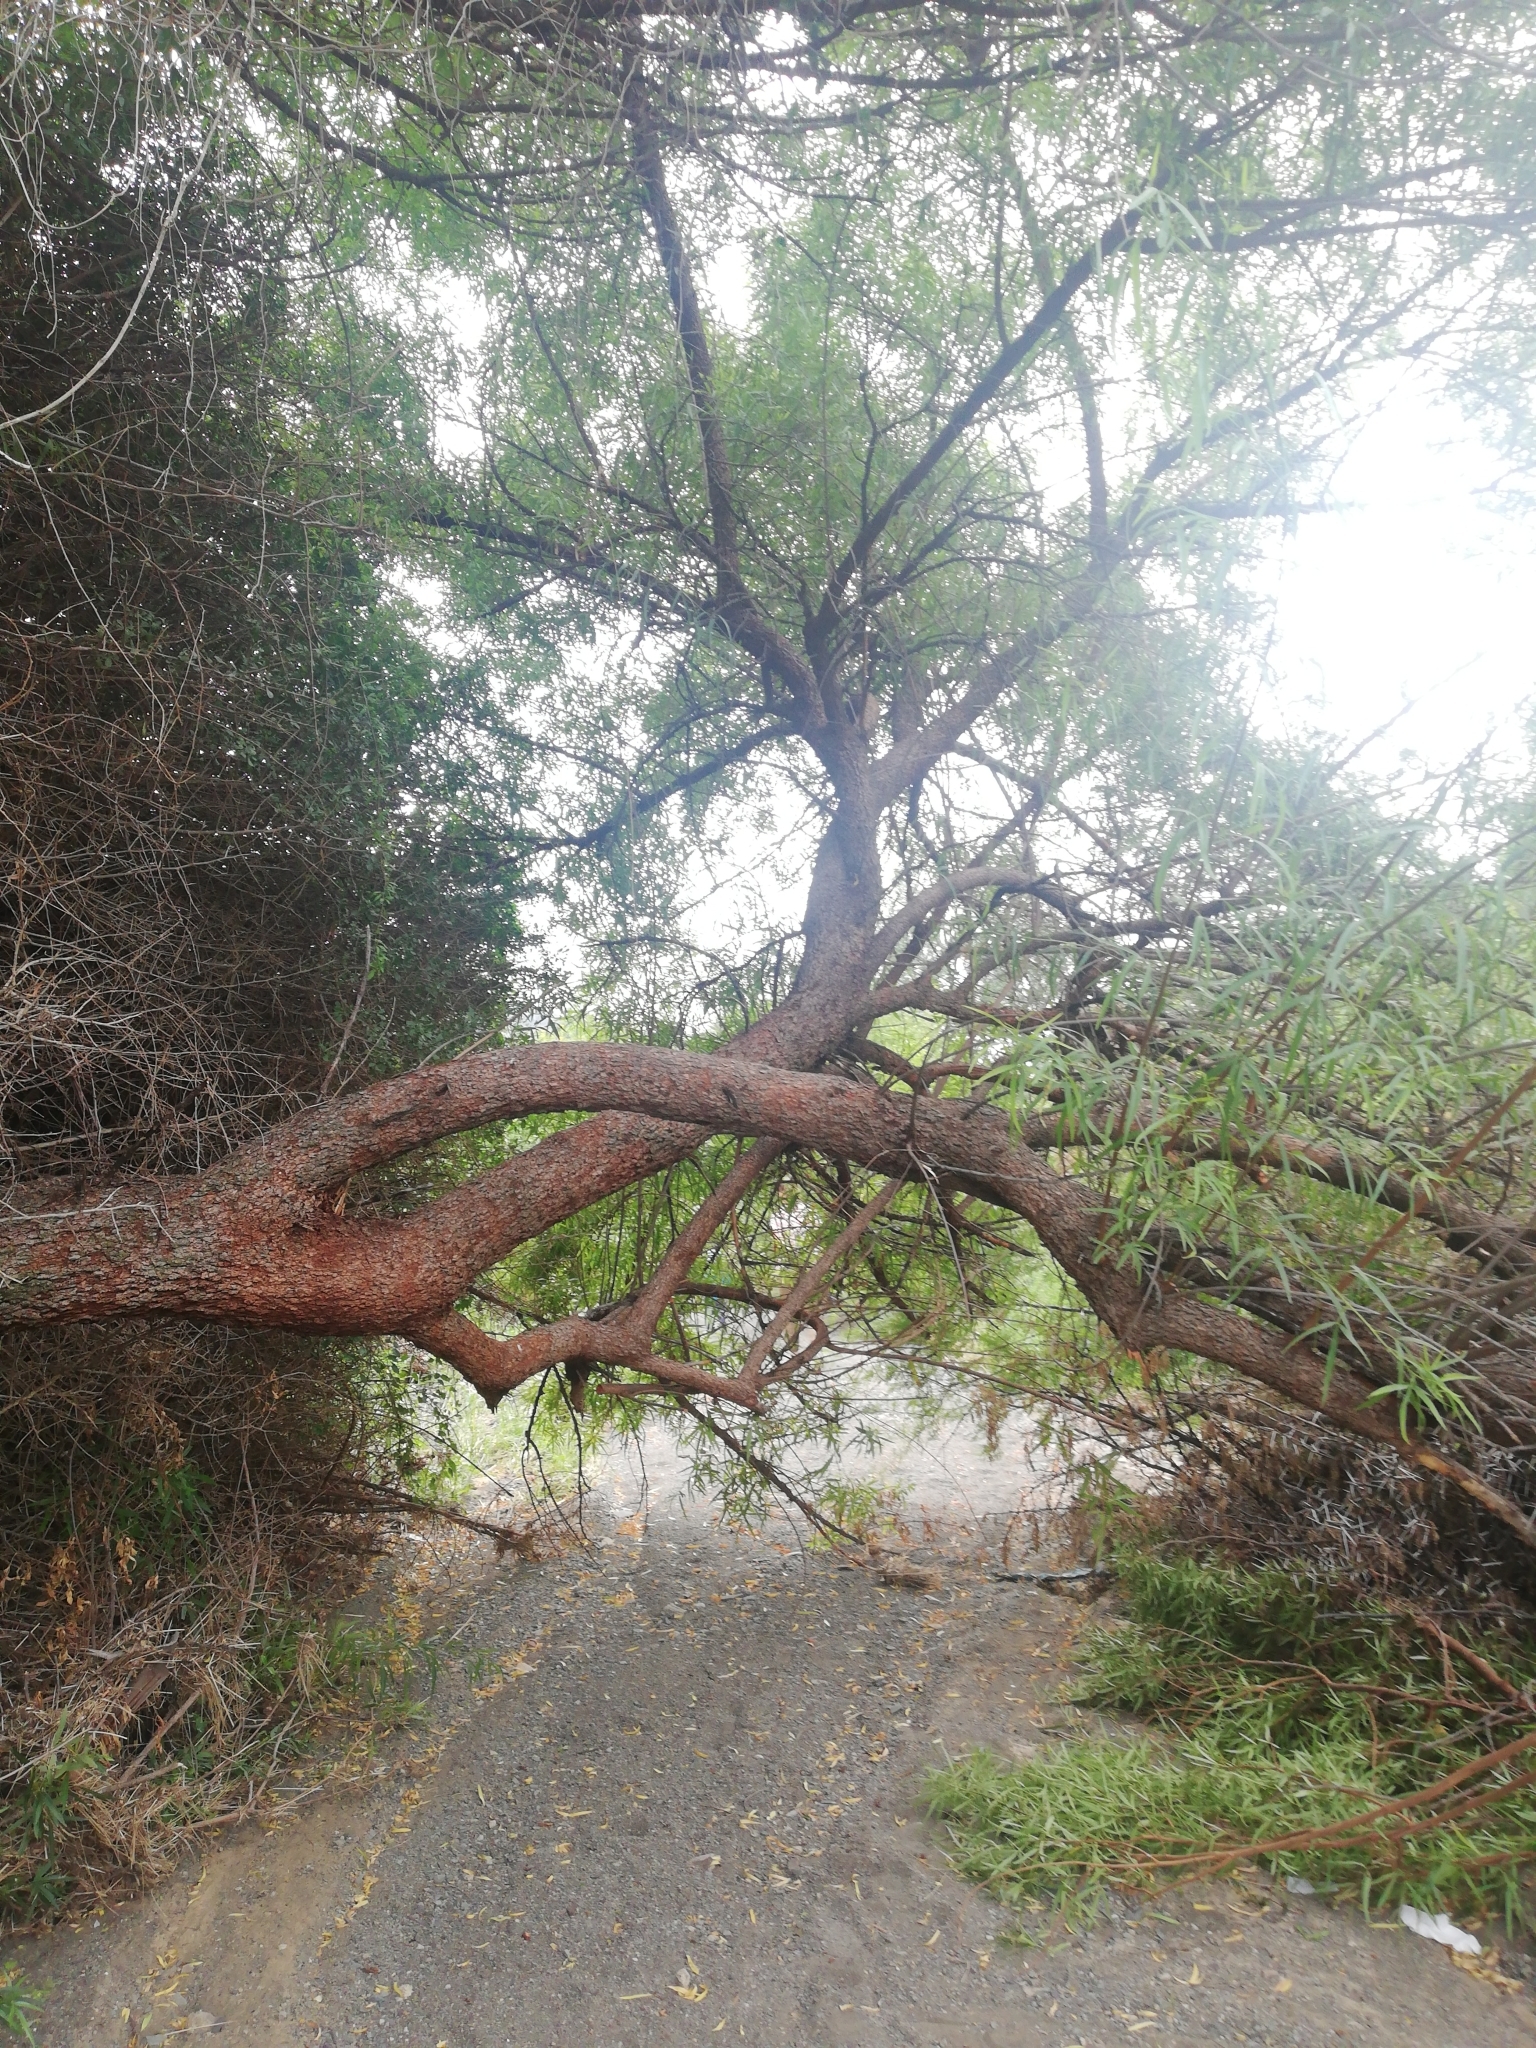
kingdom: Plantae
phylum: Tracheophyta
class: Magnoliopsida
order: Sapindales
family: Anacardiaceae
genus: Searsia
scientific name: Searsia lancea
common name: Cashew
